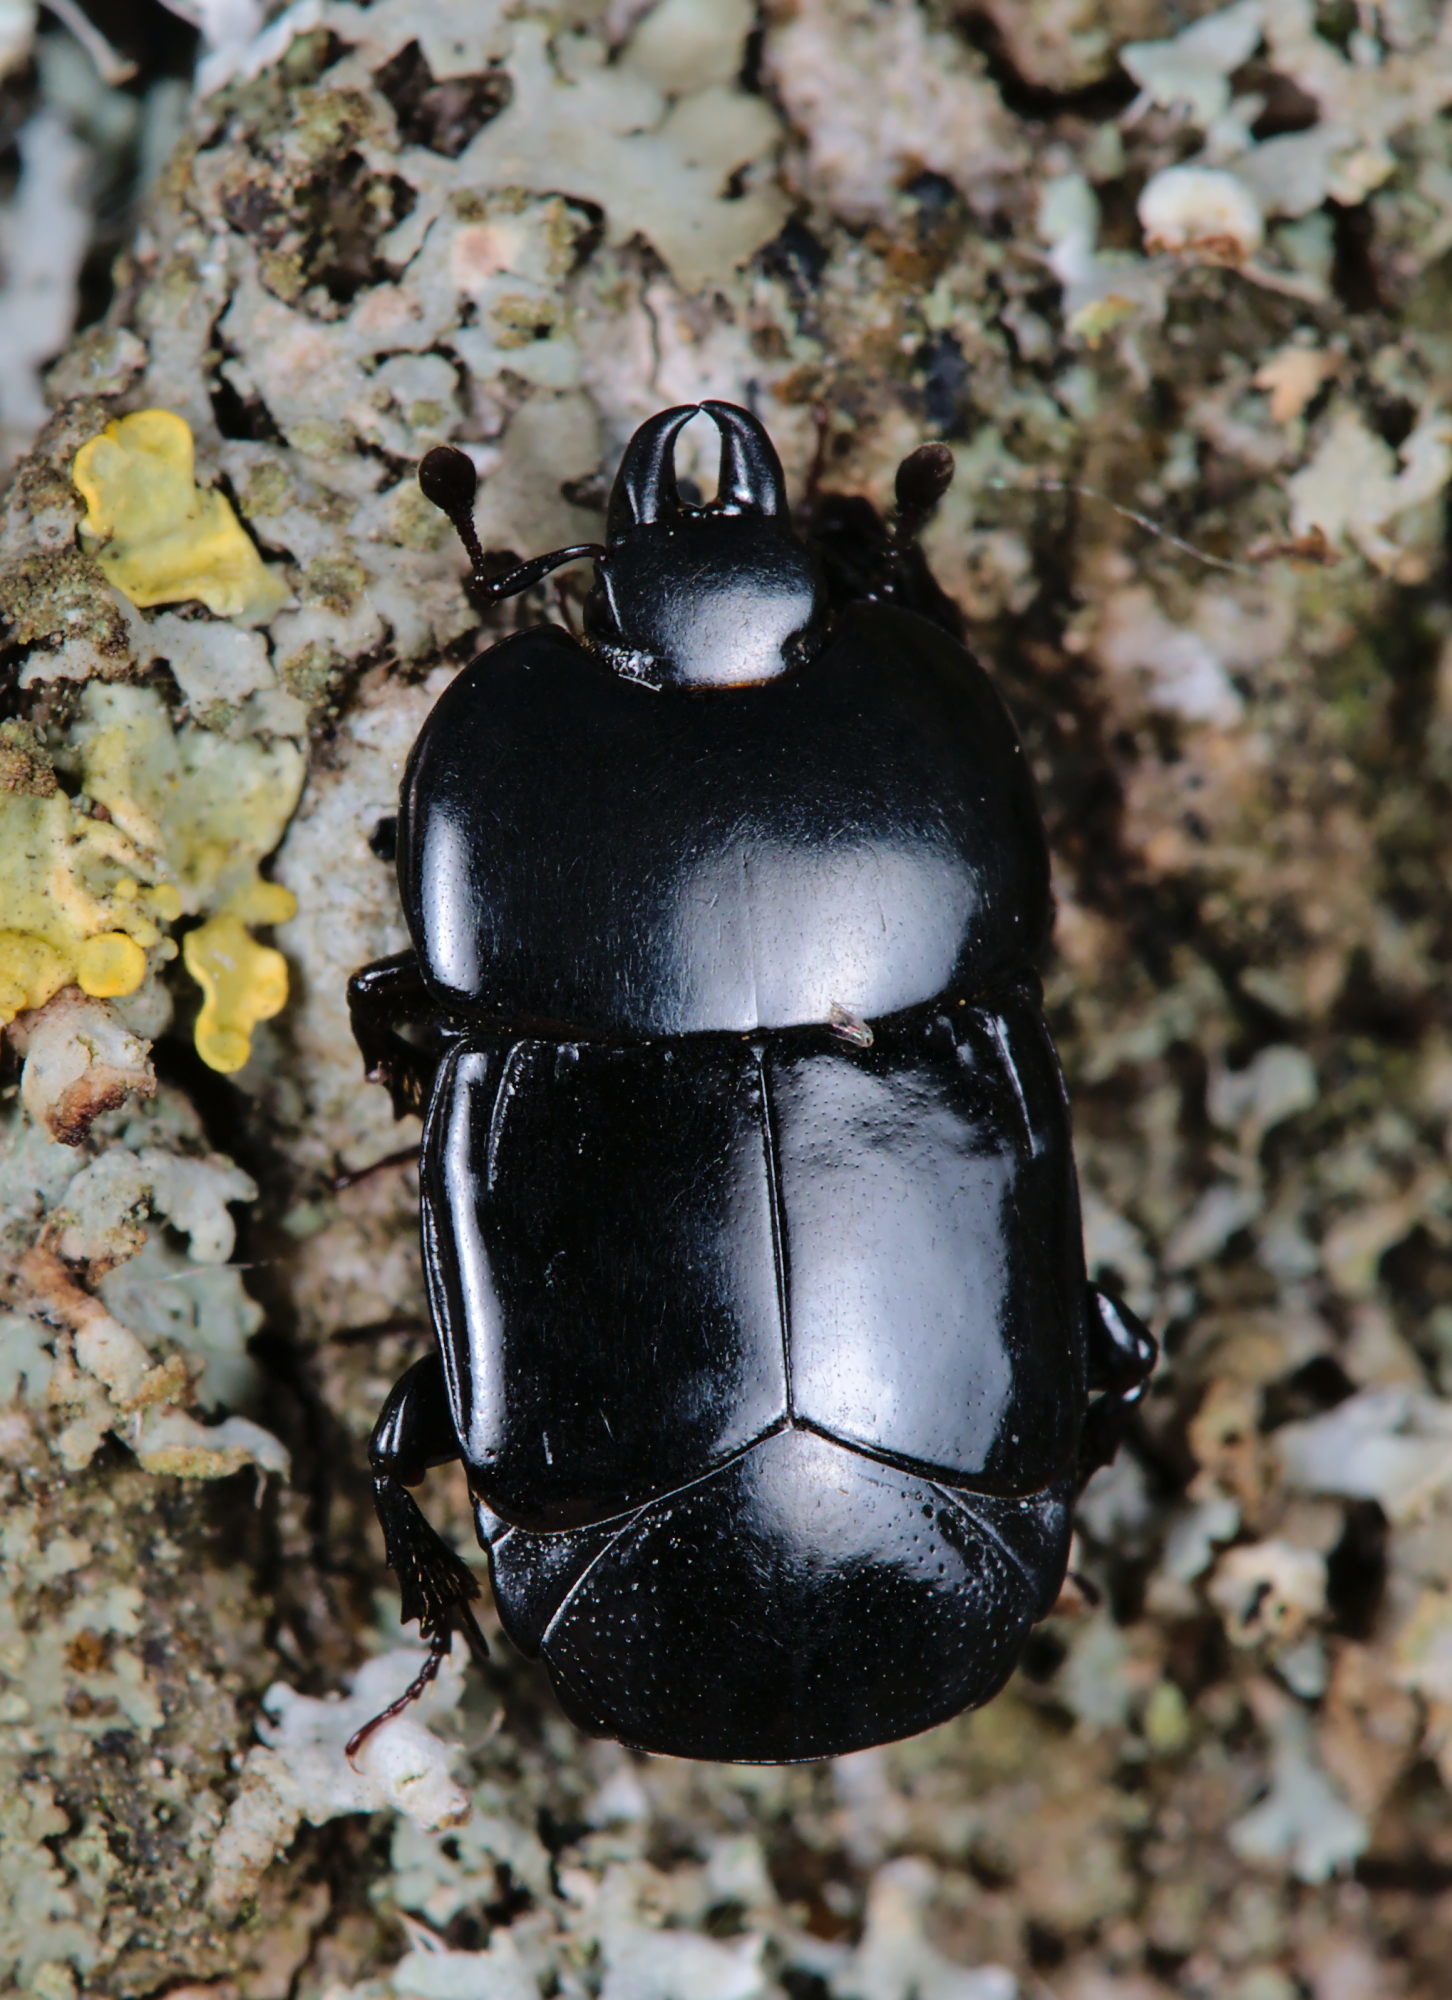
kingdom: Animalia
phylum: Arthropoda
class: Insecta
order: Coleoptera
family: Histeridae
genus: Hololepta
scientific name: Hololepta plana
